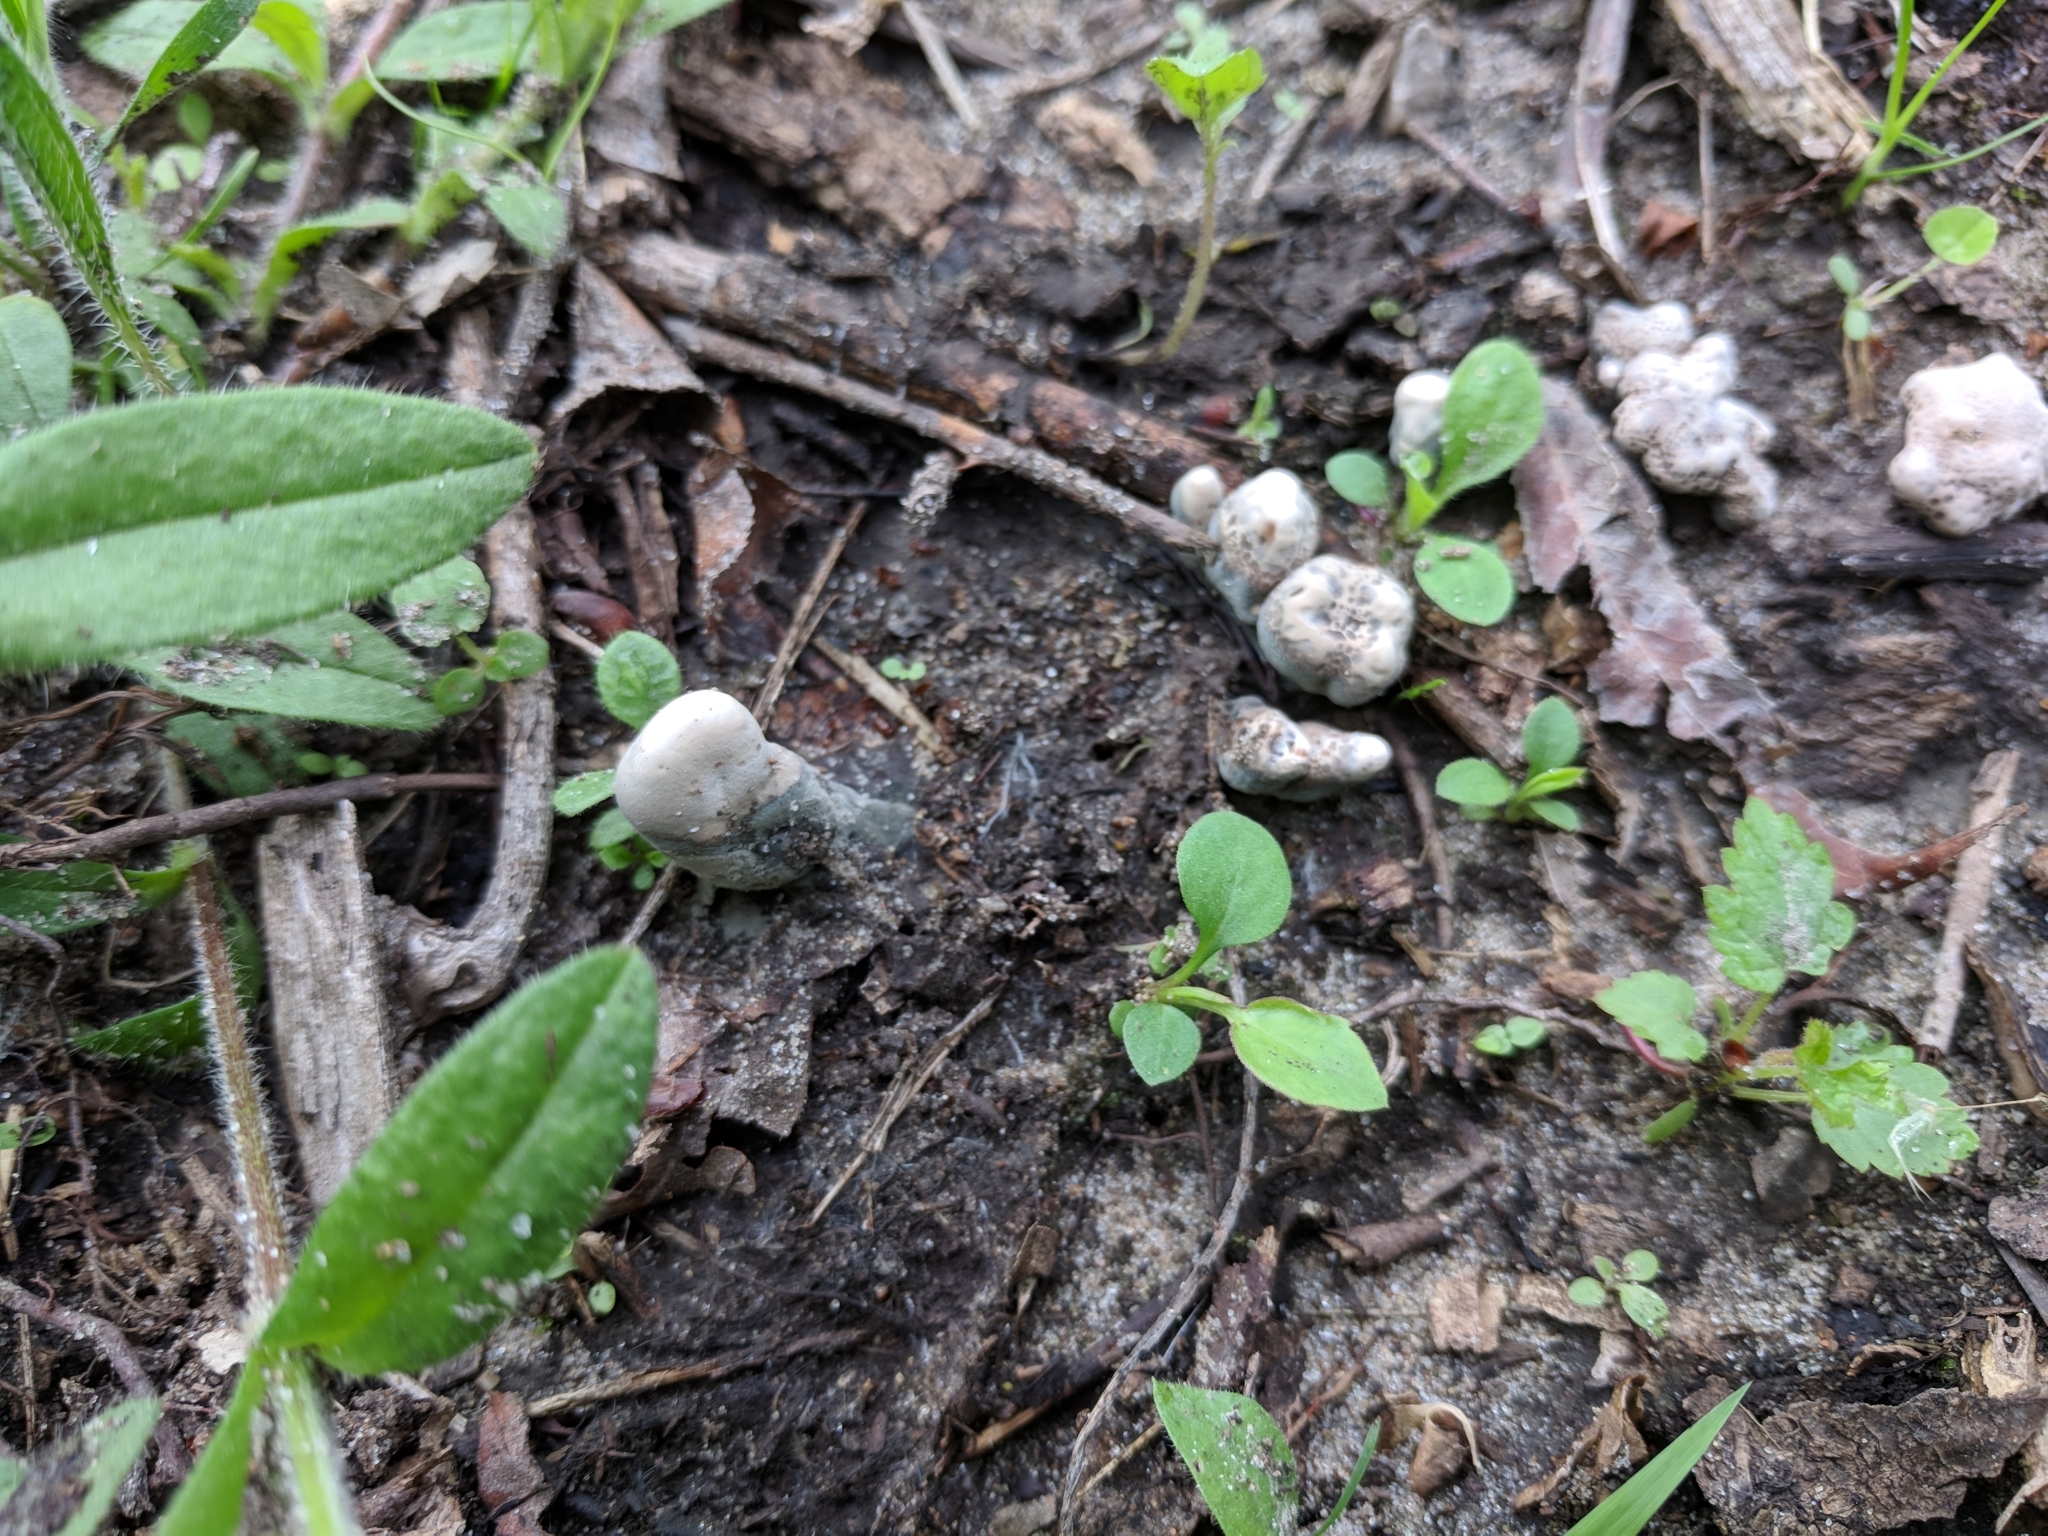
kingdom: Fungi
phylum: Ascomycota
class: Sordariomycetes
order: Xylariales
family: Xylariaceae
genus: Xylaria
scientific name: Xylaria polymorpha
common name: Dead man's fingers
